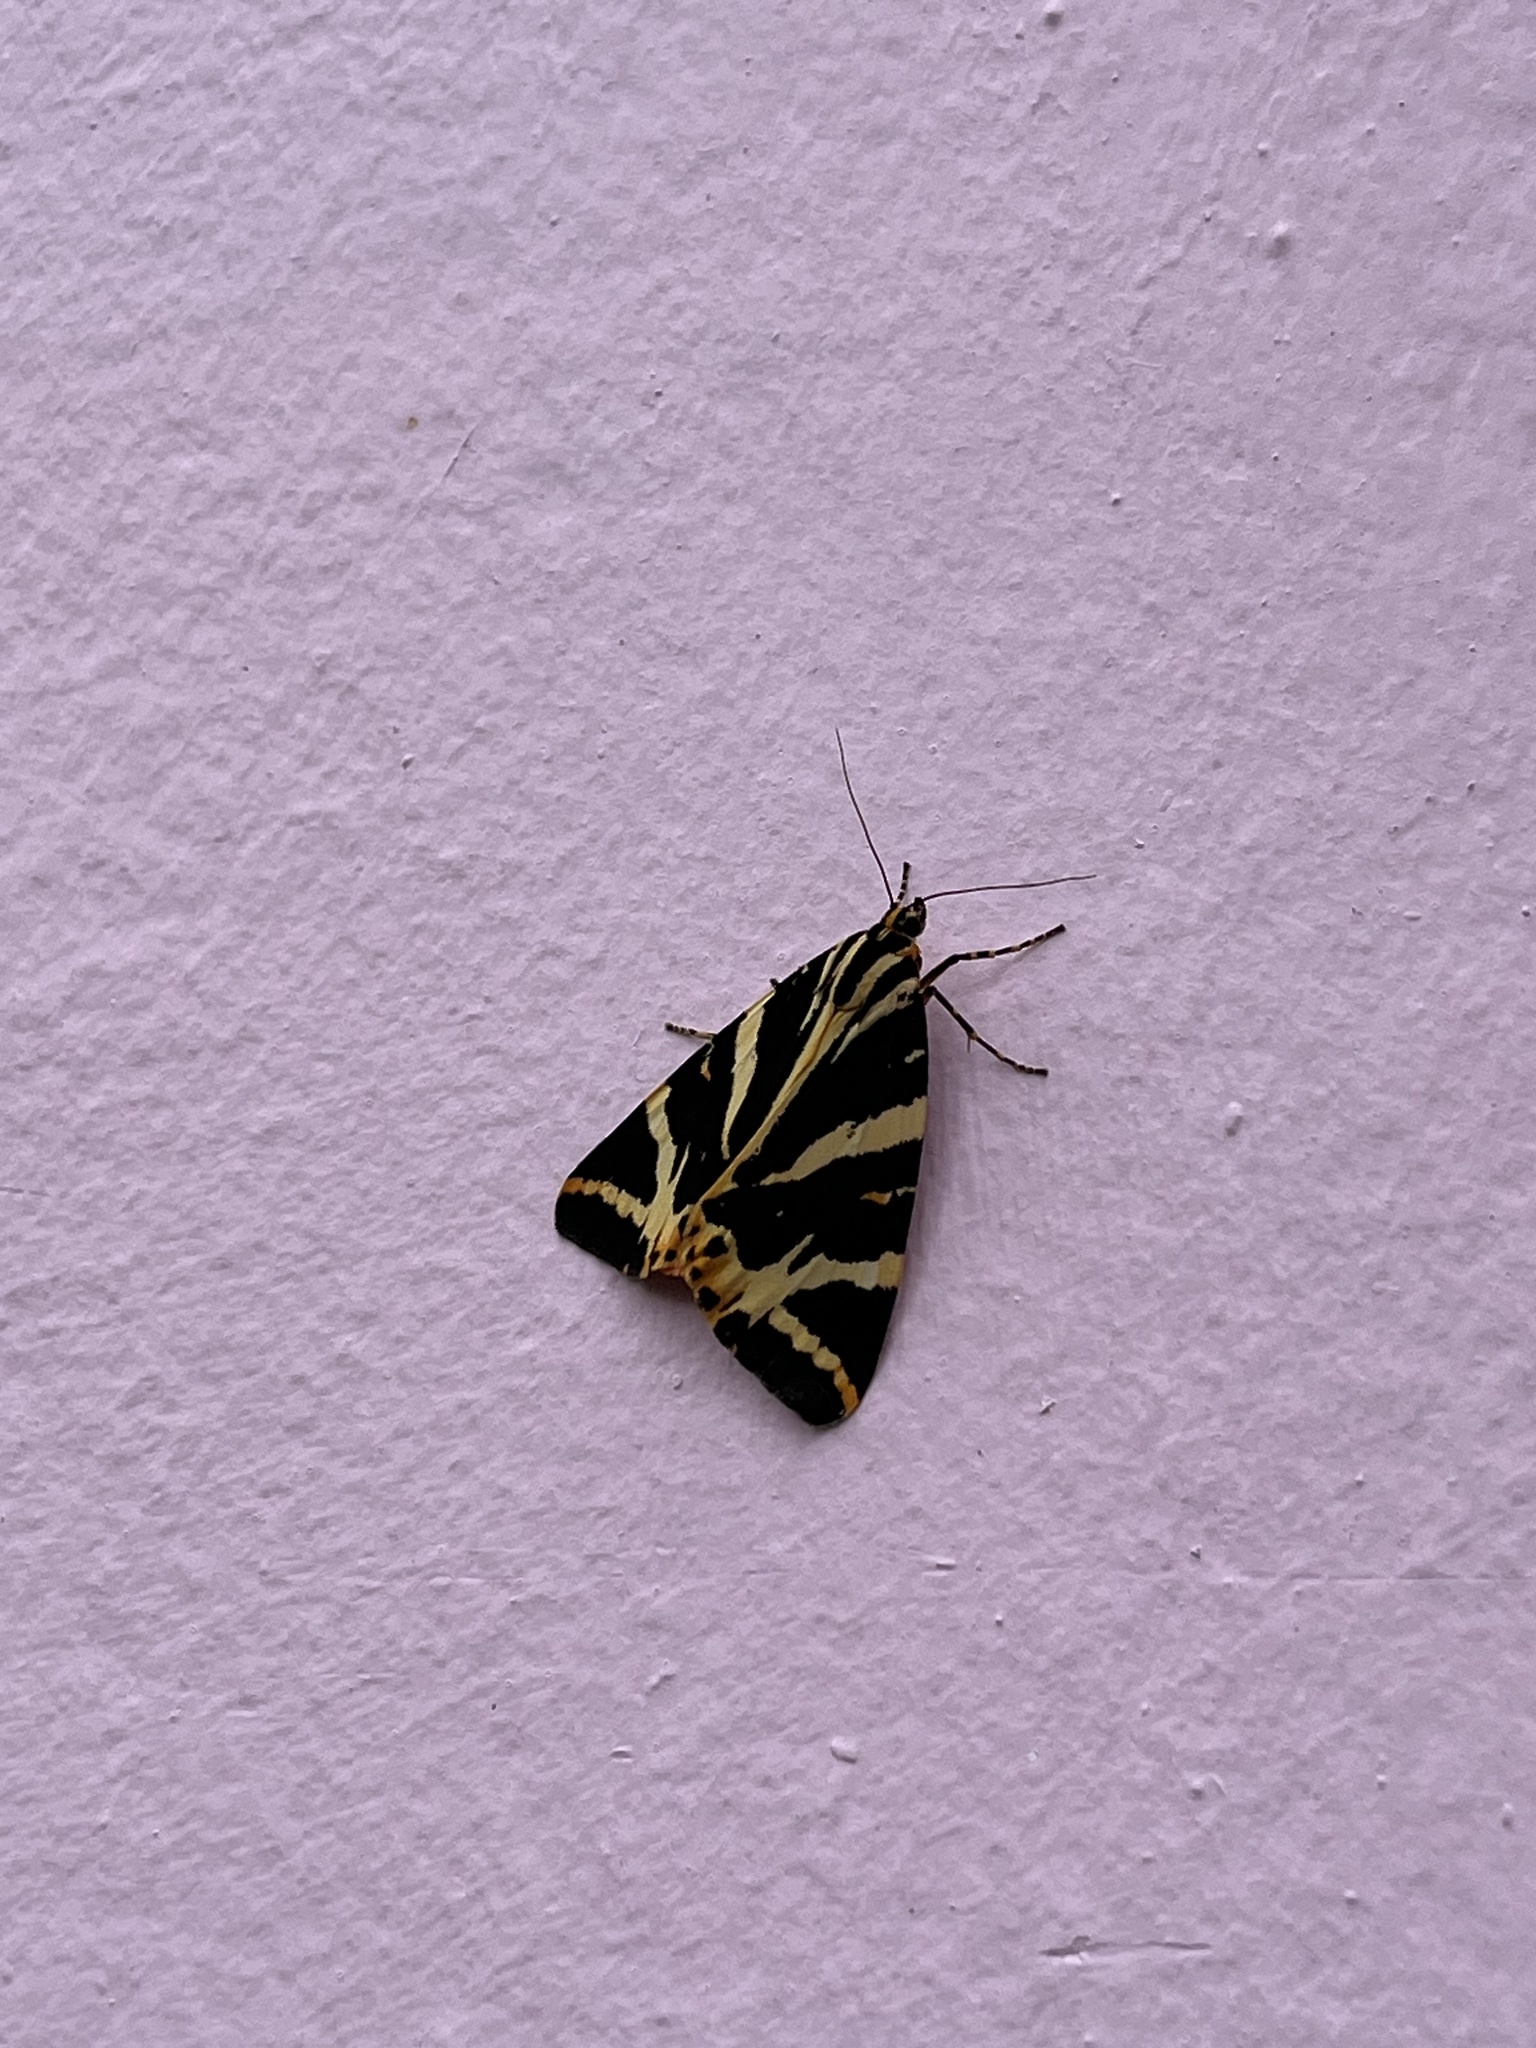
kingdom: Animalia
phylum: Arthropoda
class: Insecta
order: Lepidoptera
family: Erebidae
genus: Euplagia
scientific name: Euplagia quadripunctaria
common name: Jersey tiger
